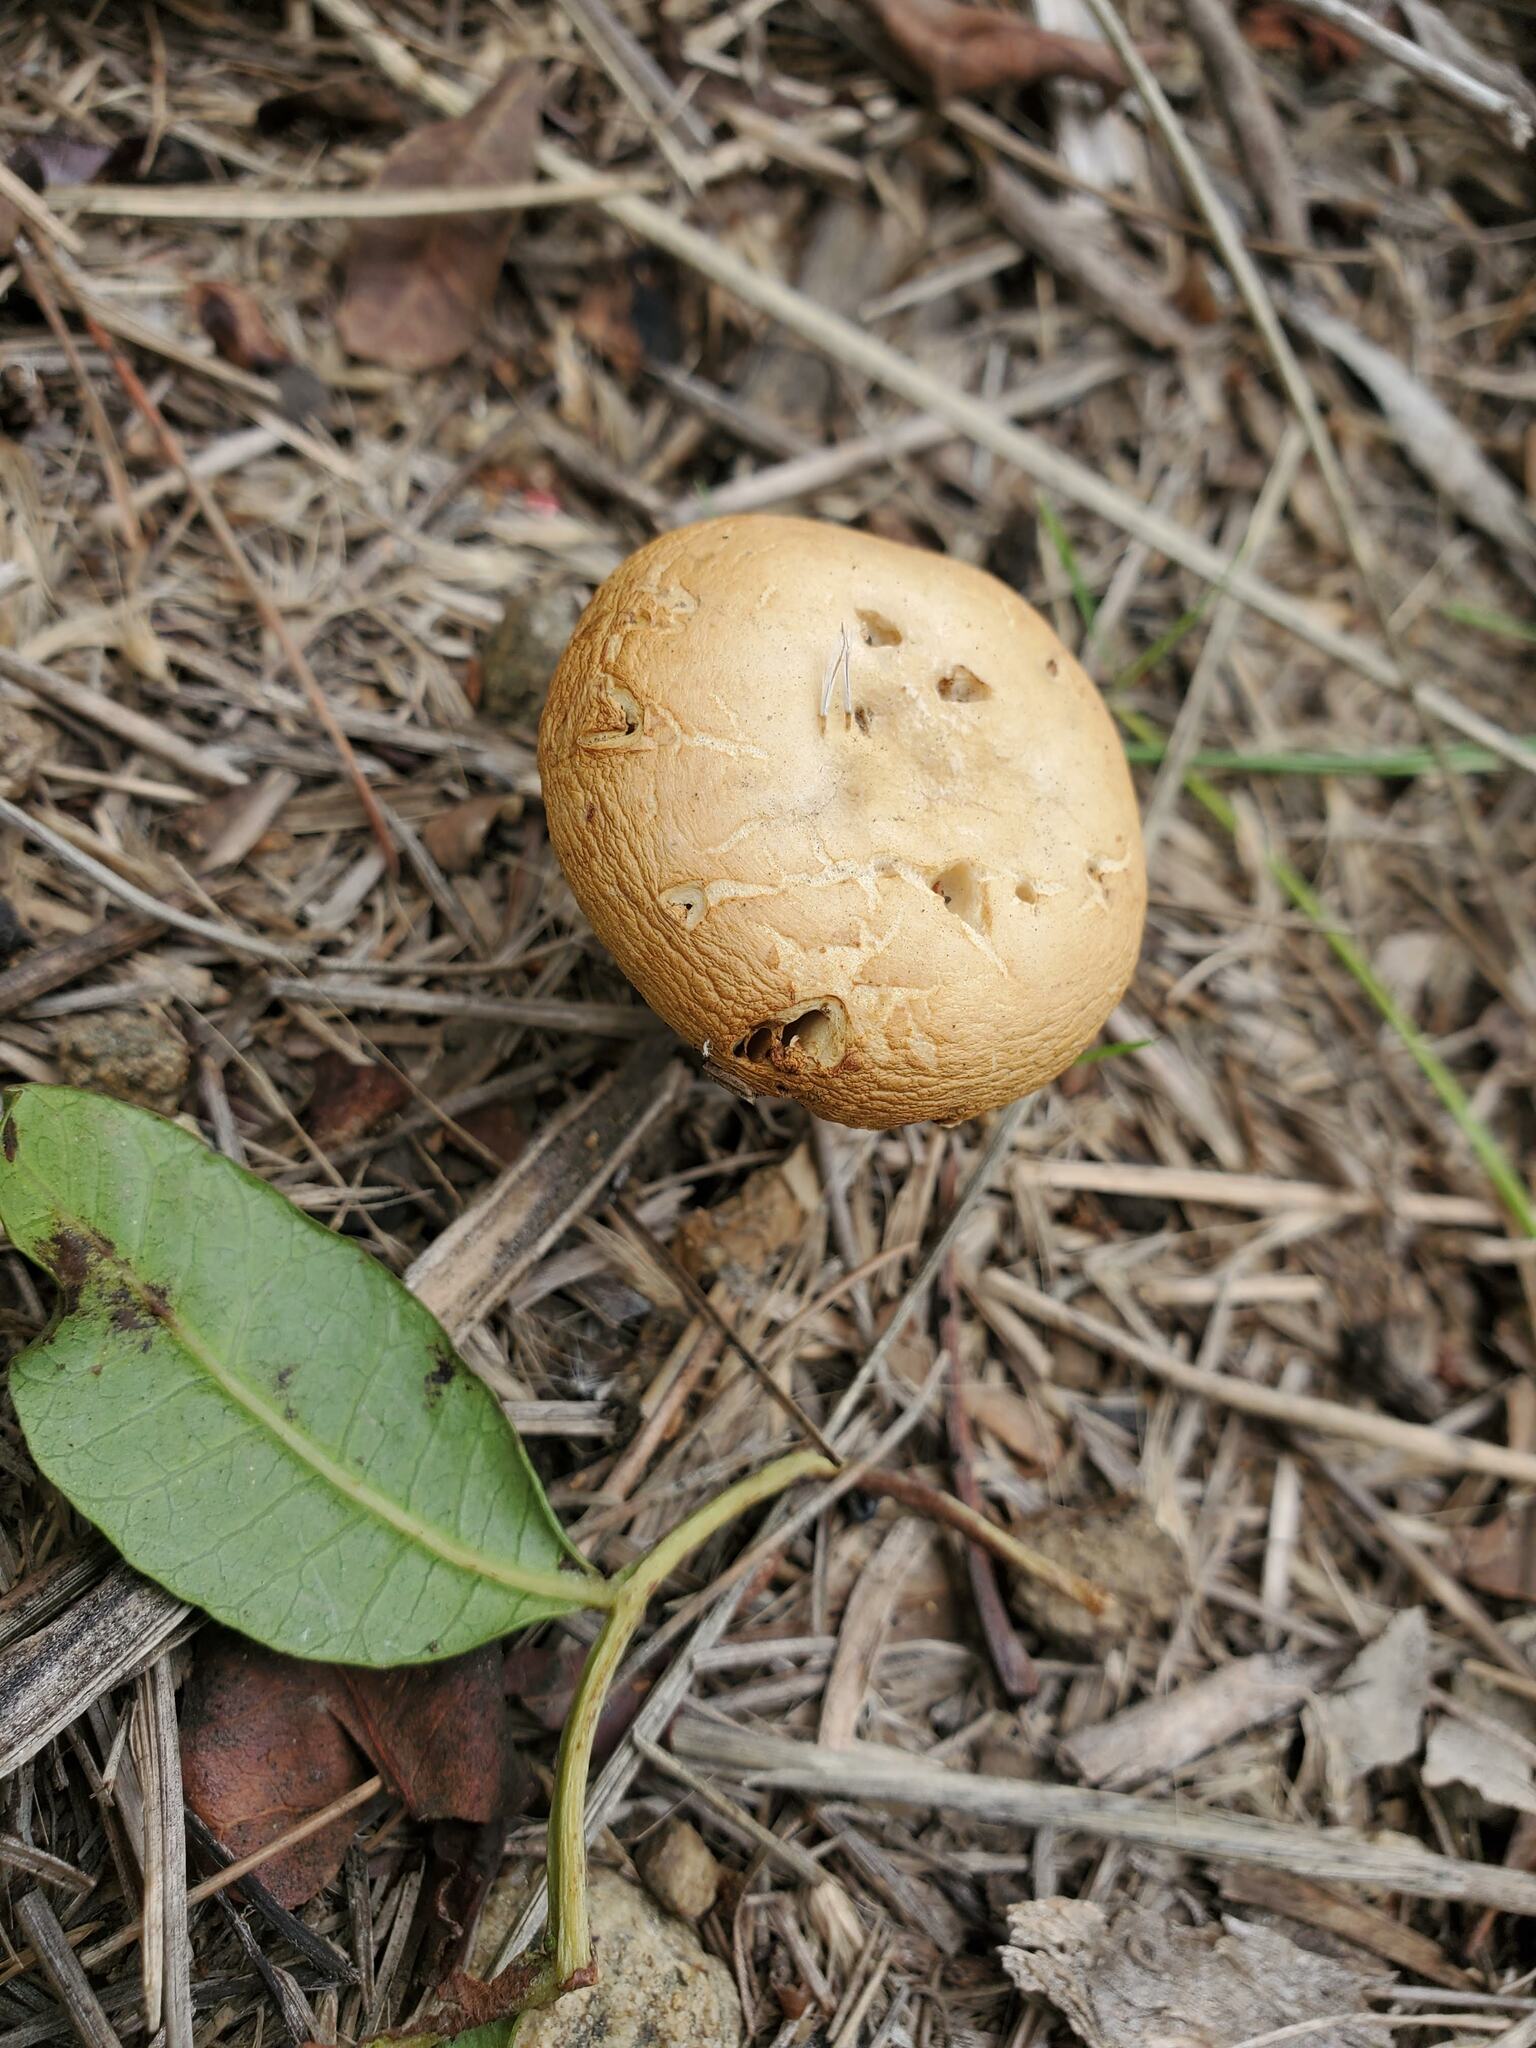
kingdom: Fungi
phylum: Basidiomycota
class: Agaricomycetes
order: Agaricales
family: Strophariaceae
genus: Agrocybe
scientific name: Agrocybe pediades
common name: Common fieldcap
